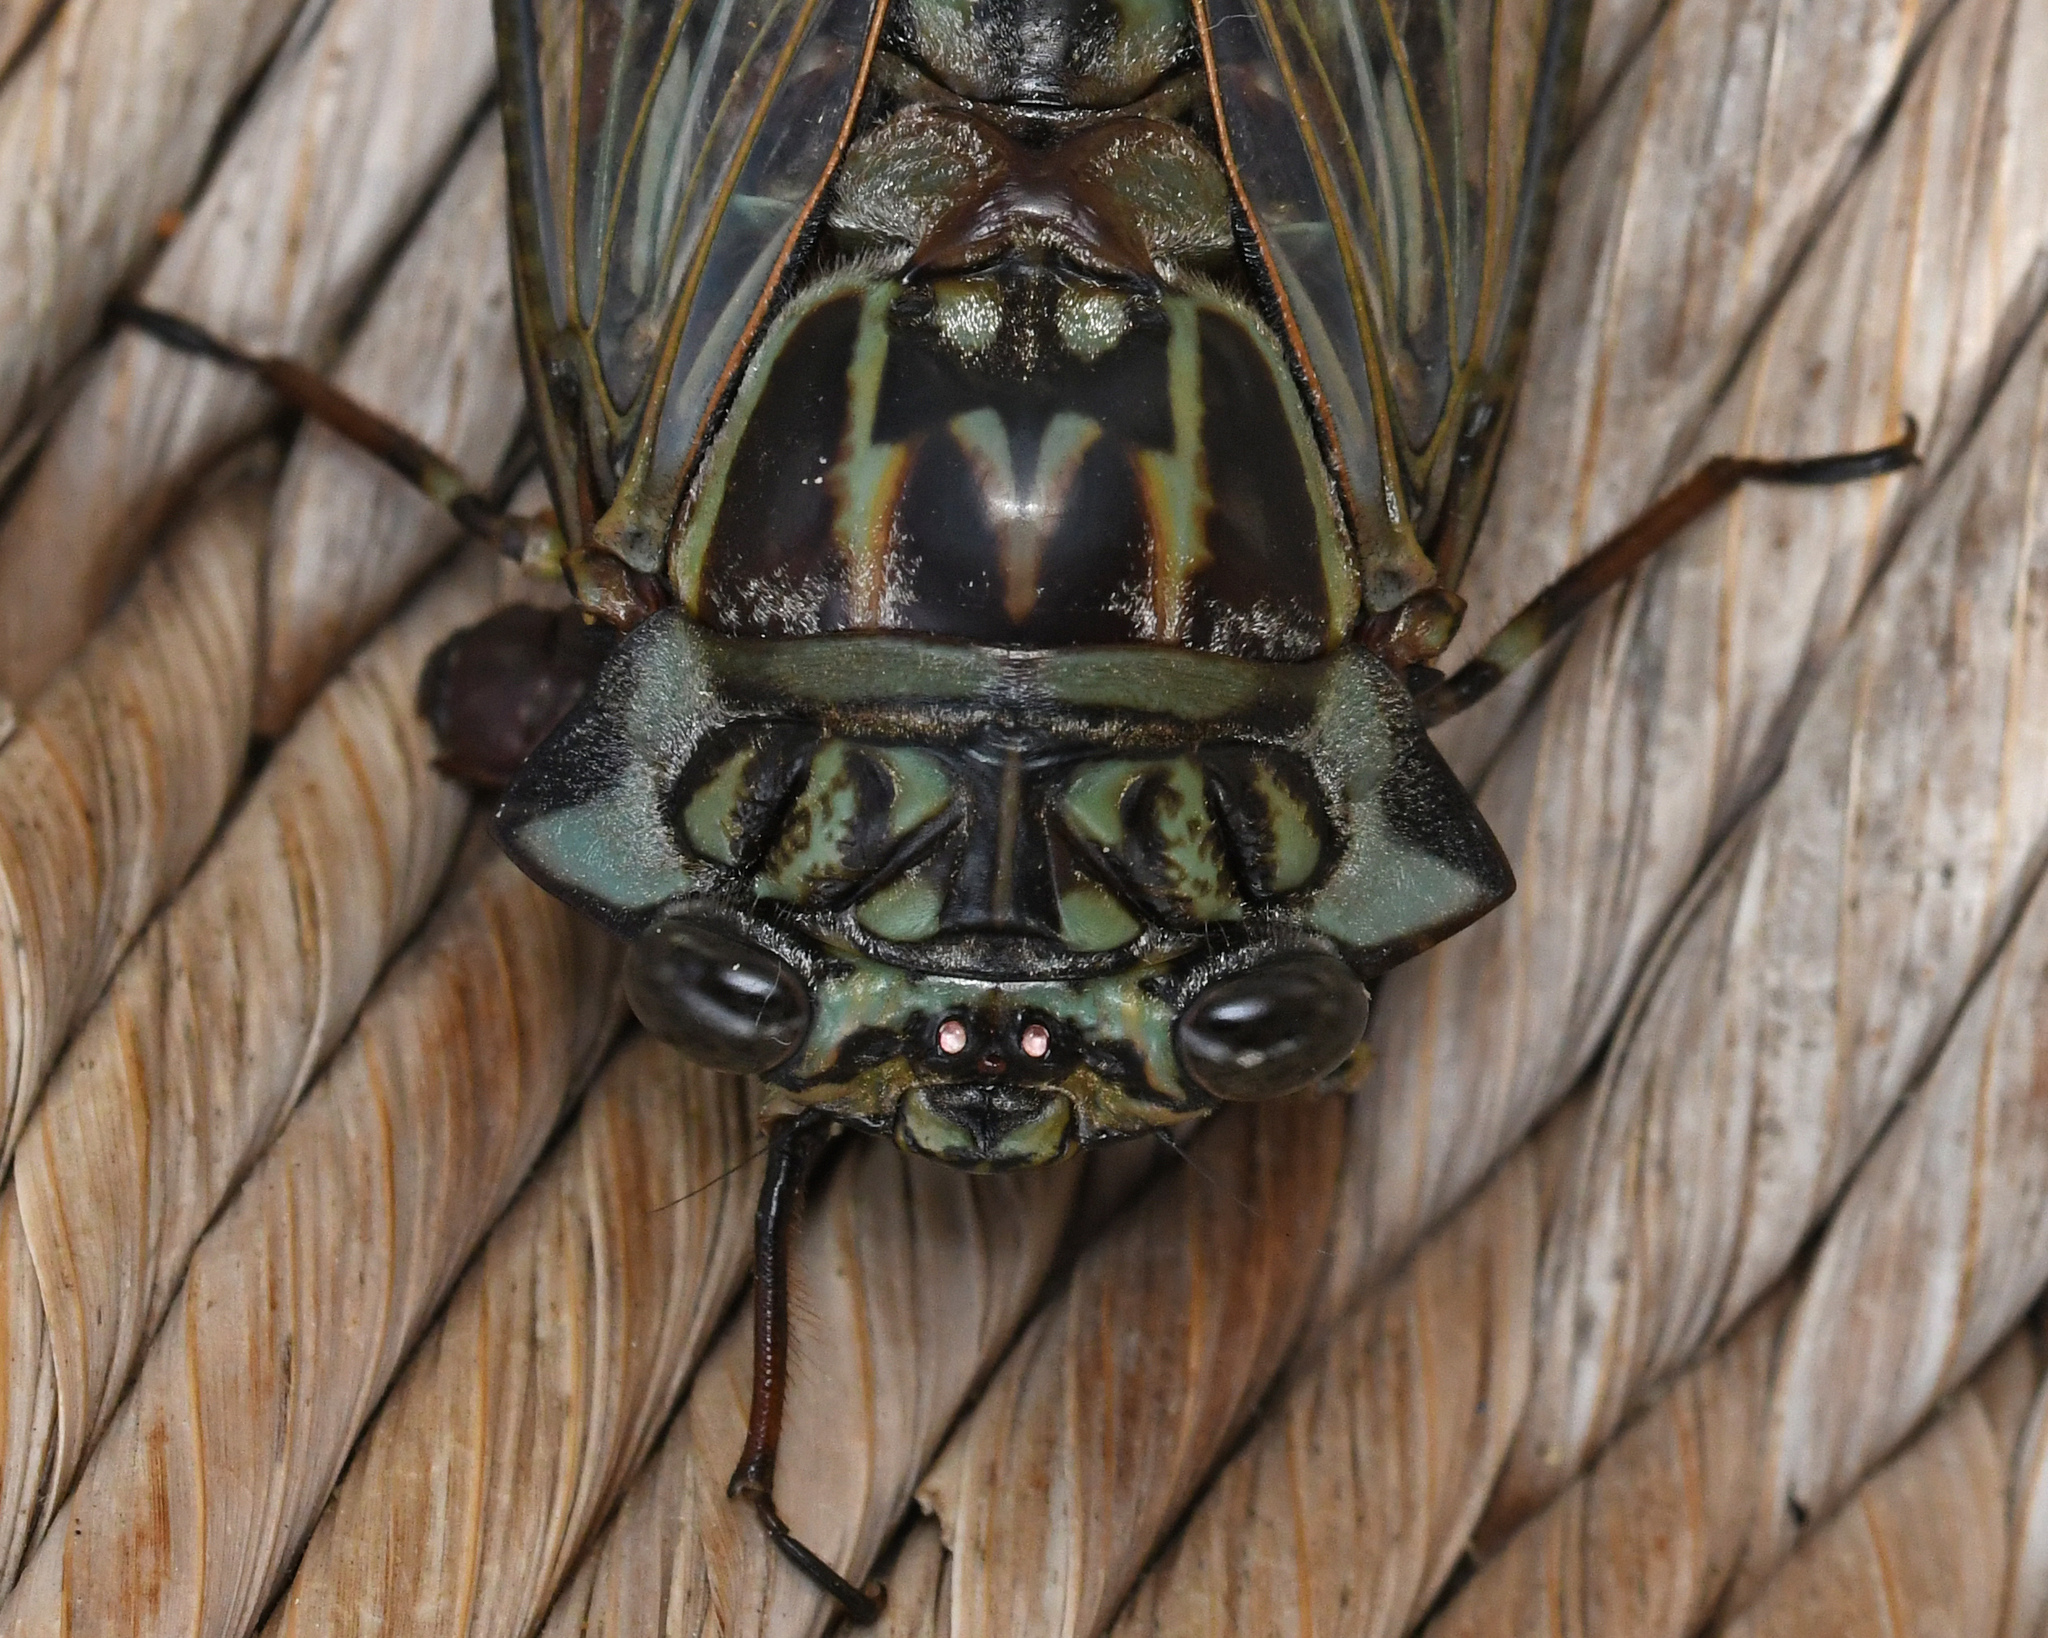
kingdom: Animalia
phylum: Arthropoda
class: Insecta
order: Hemiptera
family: Cicadidae
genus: Odopoea
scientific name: Odopoea cariboea
